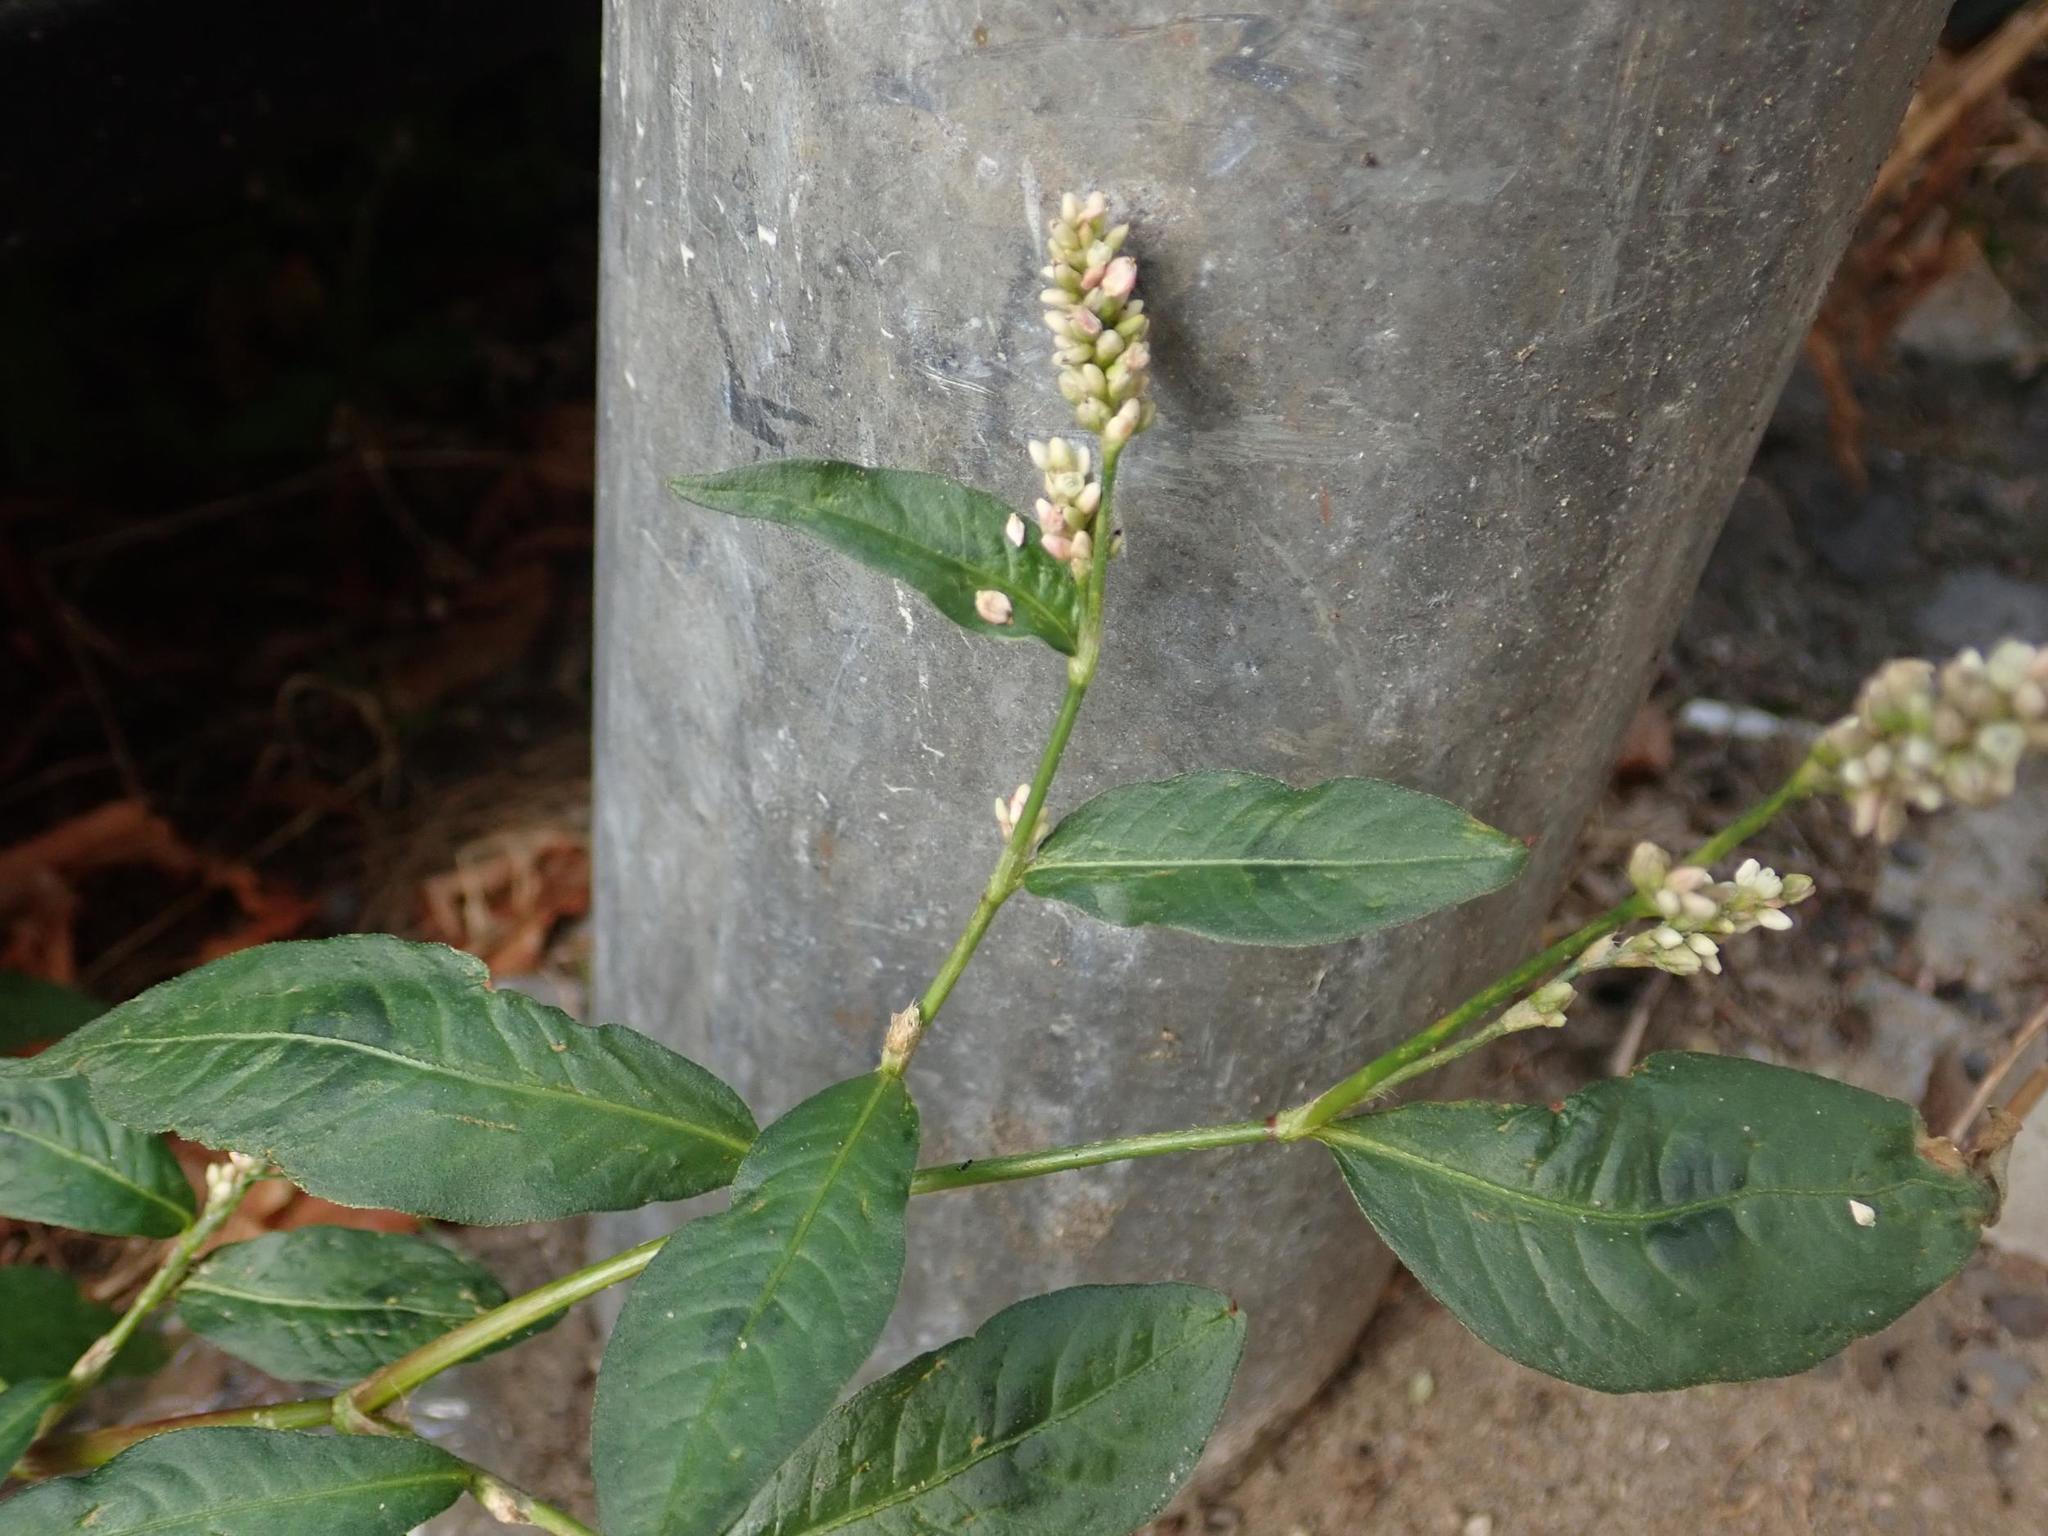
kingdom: Plantae
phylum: Tracheophyta
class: Magnoliopsida
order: Caryophyllales
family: Polygonaceae
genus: Persicaria
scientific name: Persicaria maculosa
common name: Redshank
